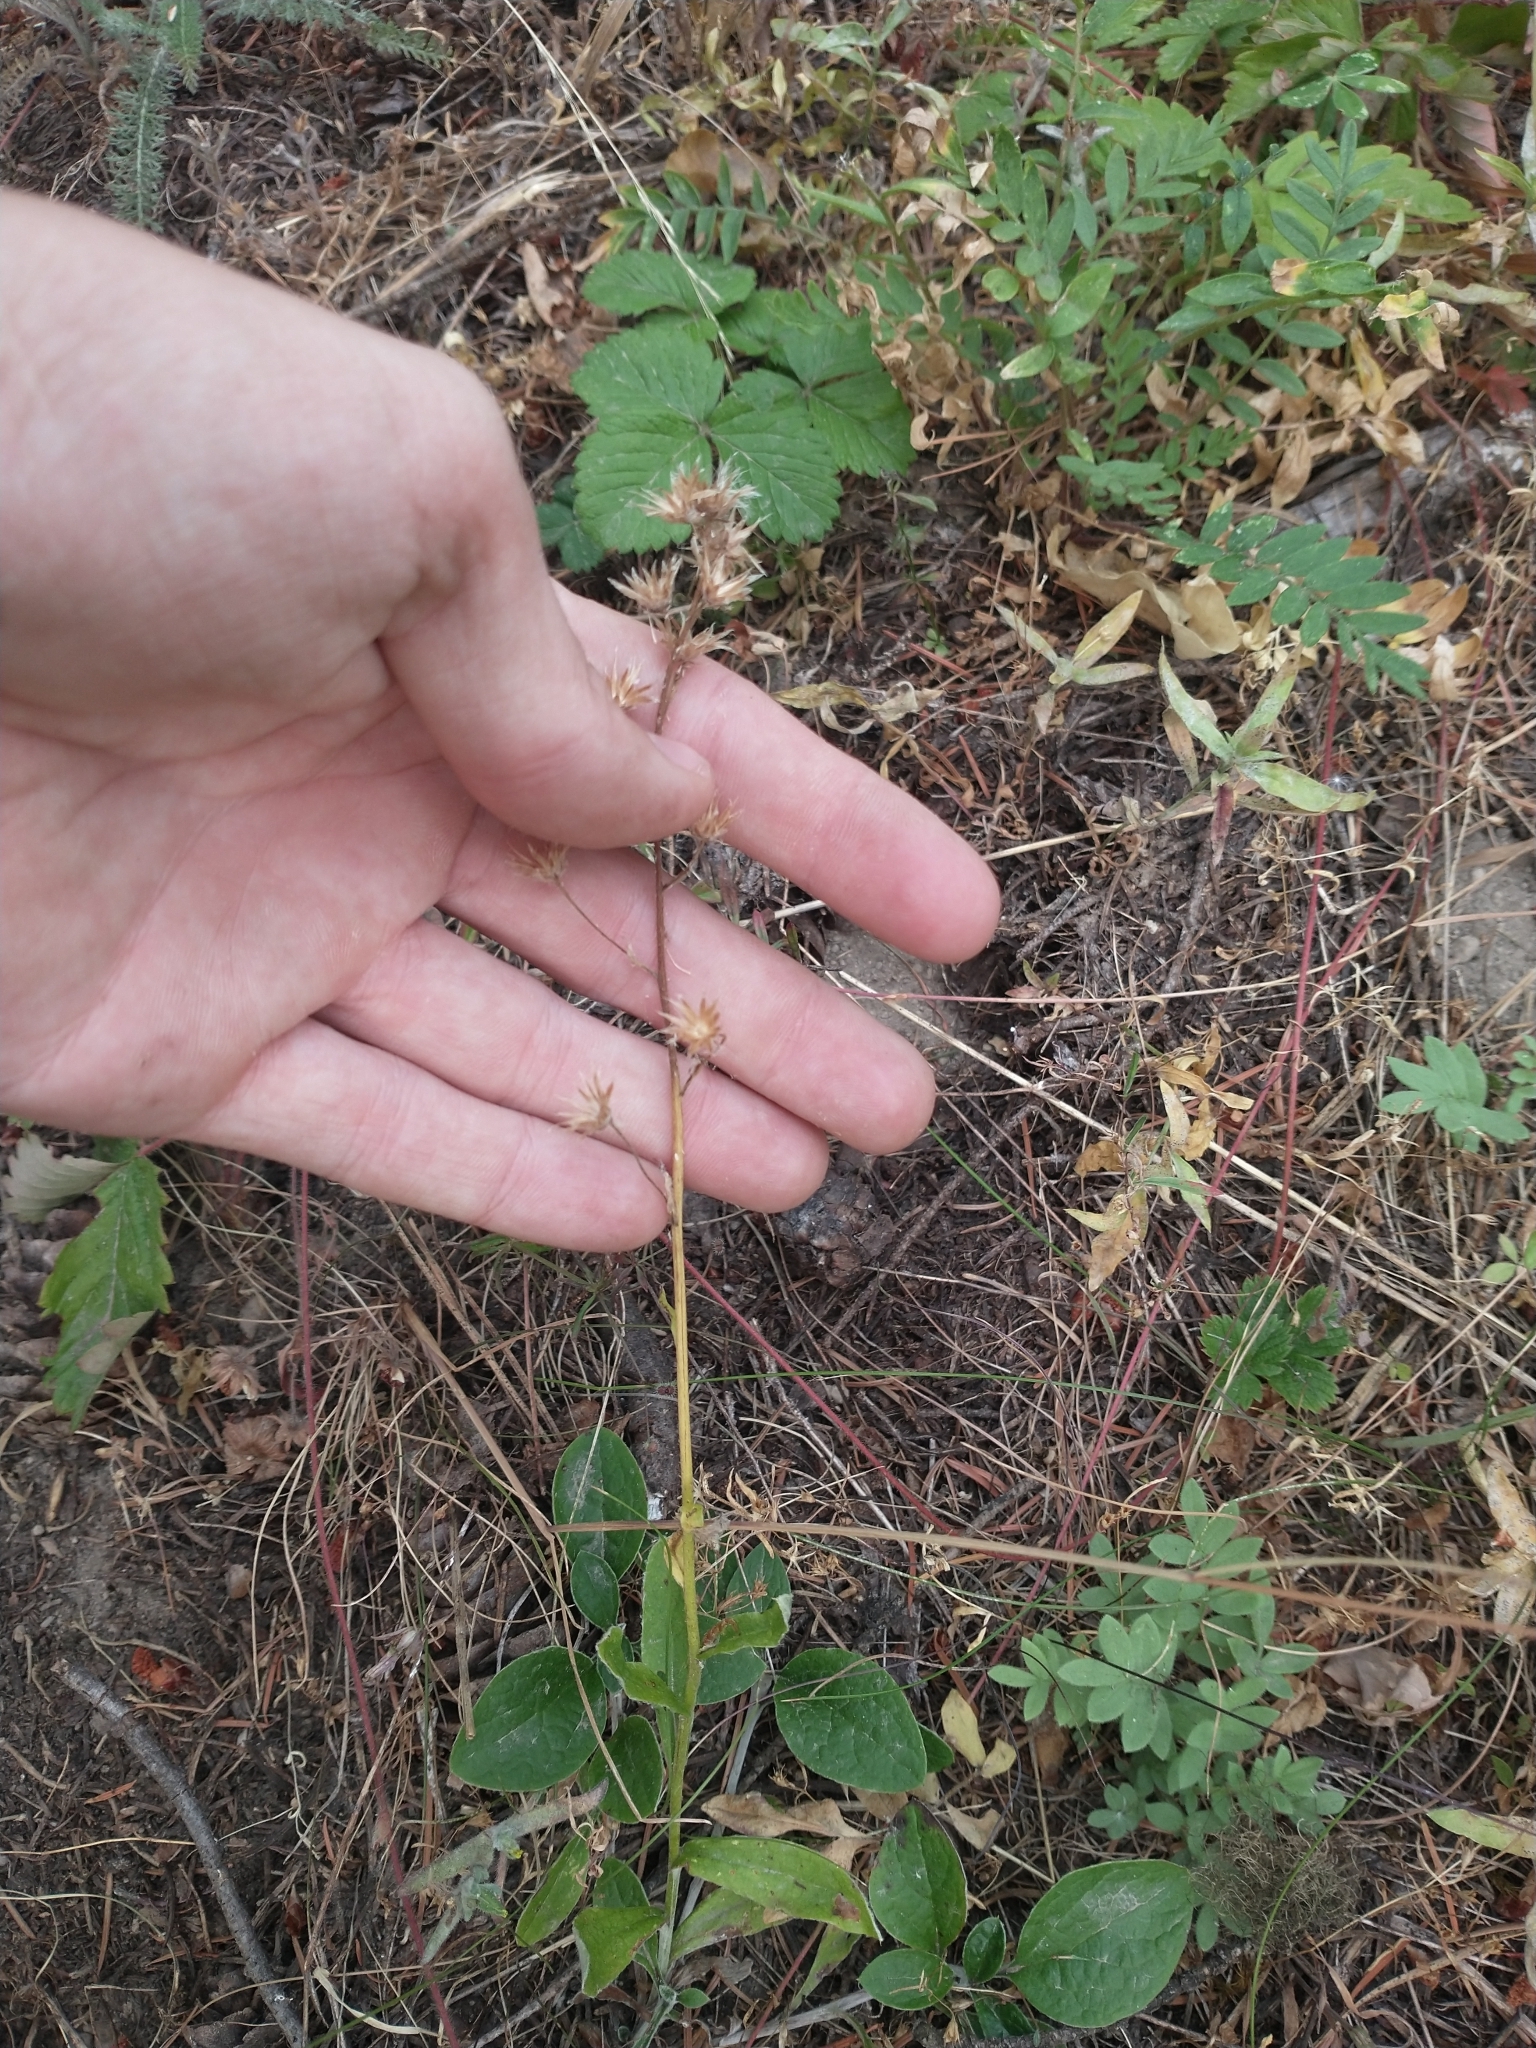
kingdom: Plantae
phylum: Tracheophyta
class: Magnoliopsida
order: Asterales
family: Asteraceae
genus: Antennaria
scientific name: Antennaria racemosa
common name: Racemose pussytoes
